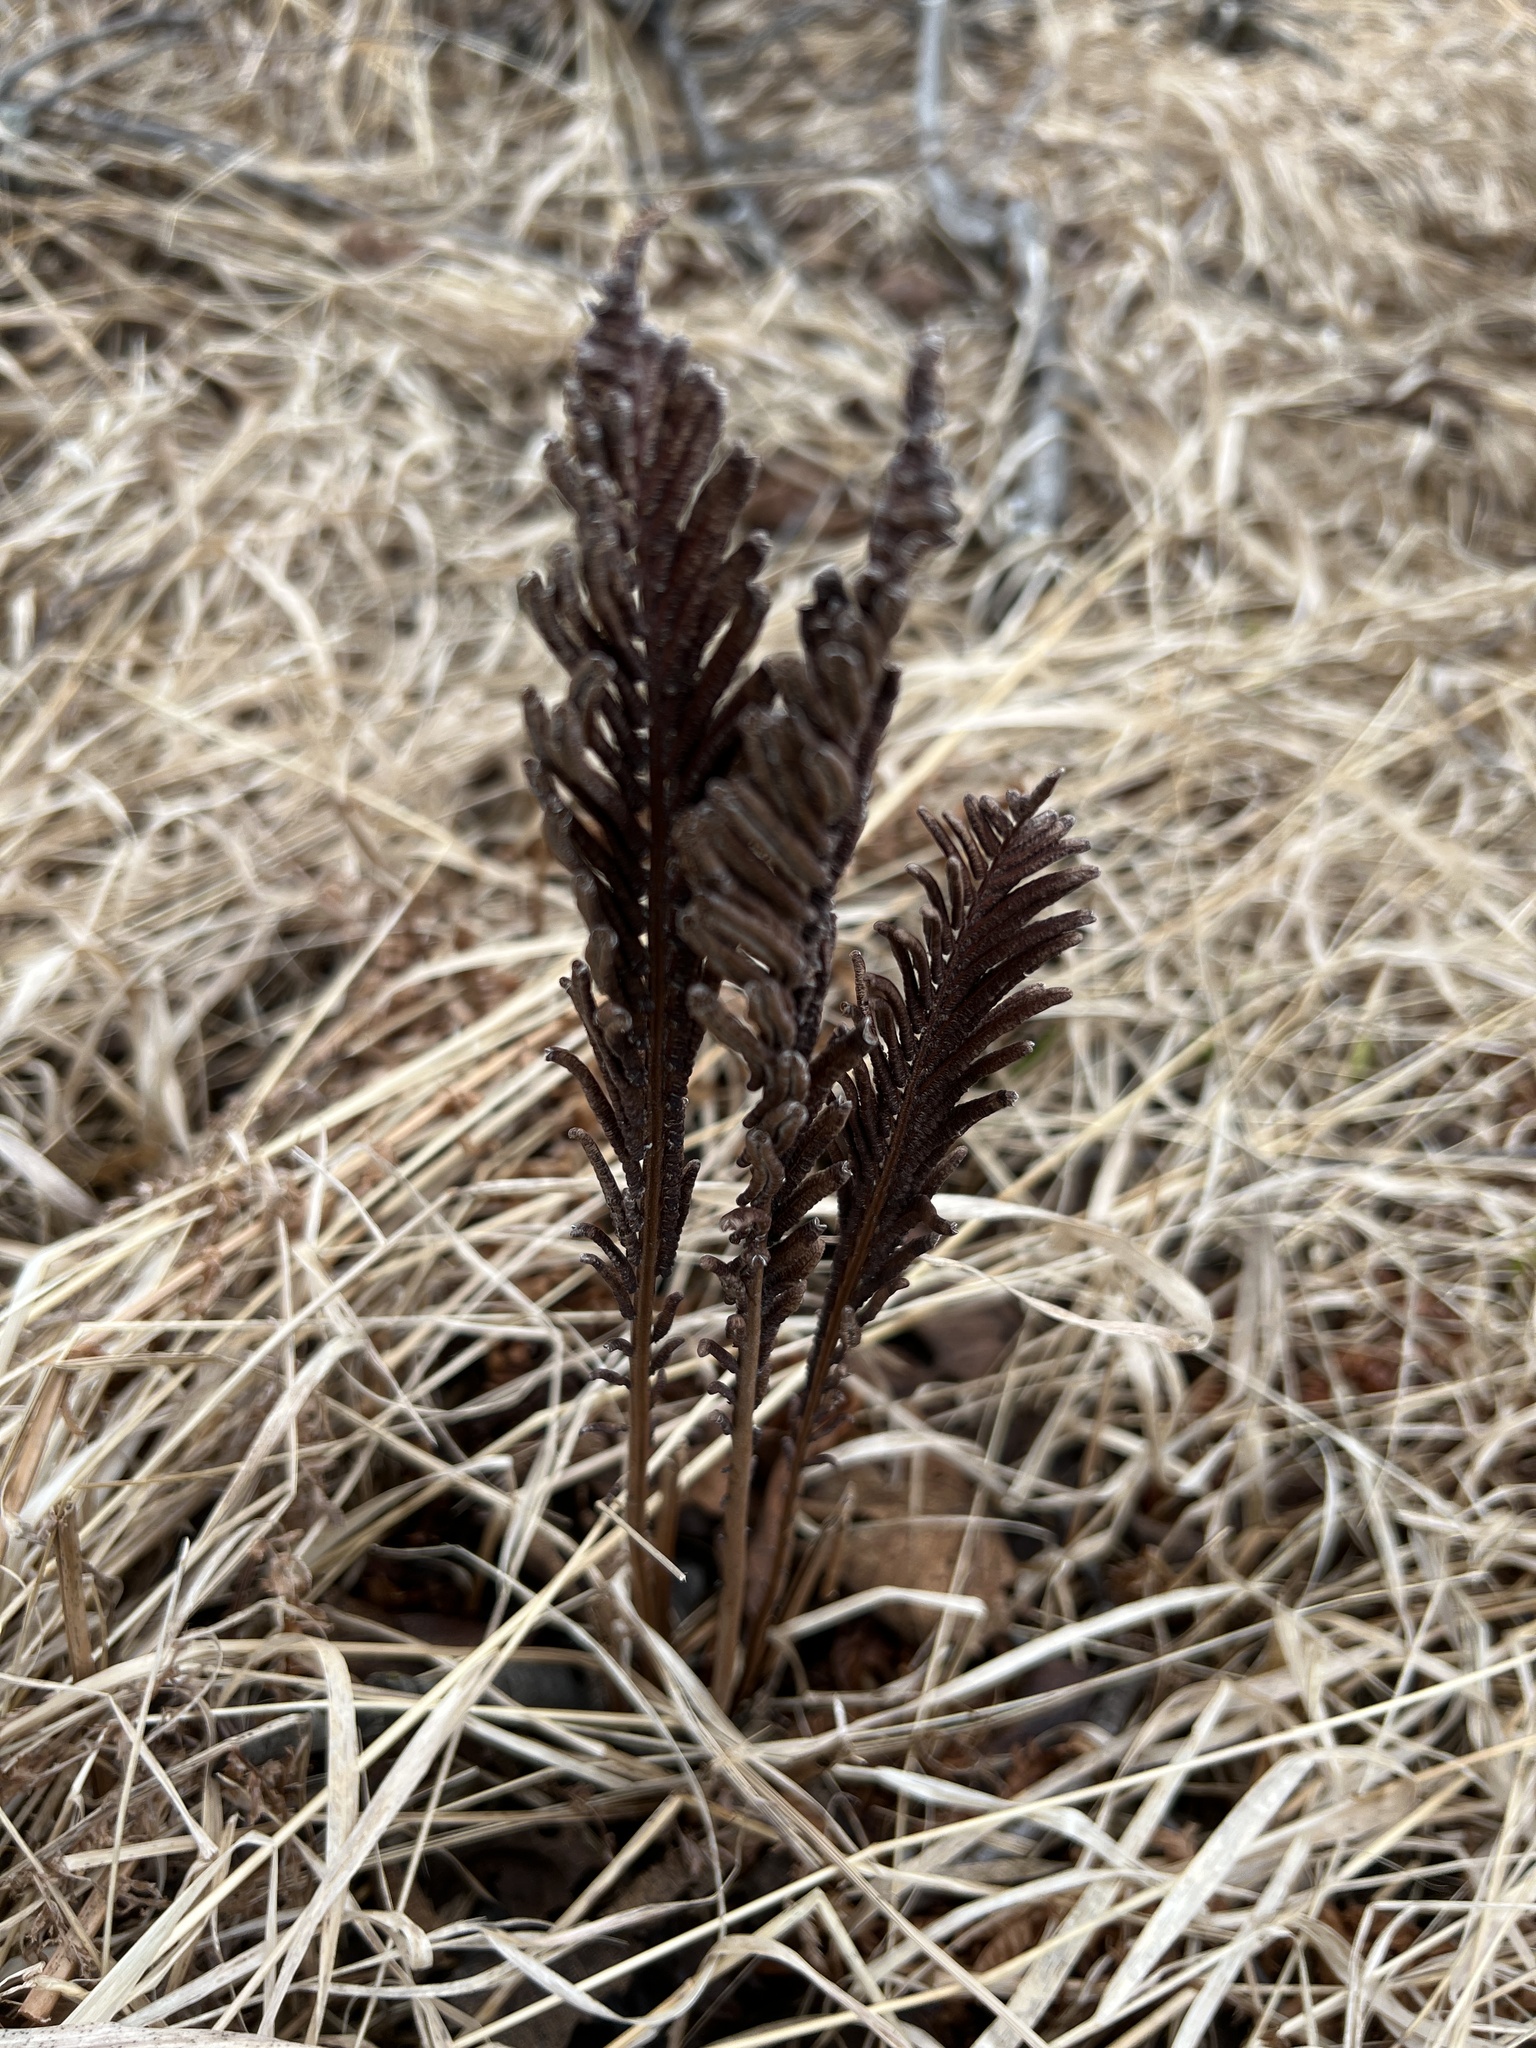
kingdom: Plantae
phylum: Tracheophyta
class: Polypodiopsida
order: Polypodiales
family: Onocleaceae
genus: Matteuccia
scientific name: Matteuccia struthiopteris
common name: Ostrich fern
